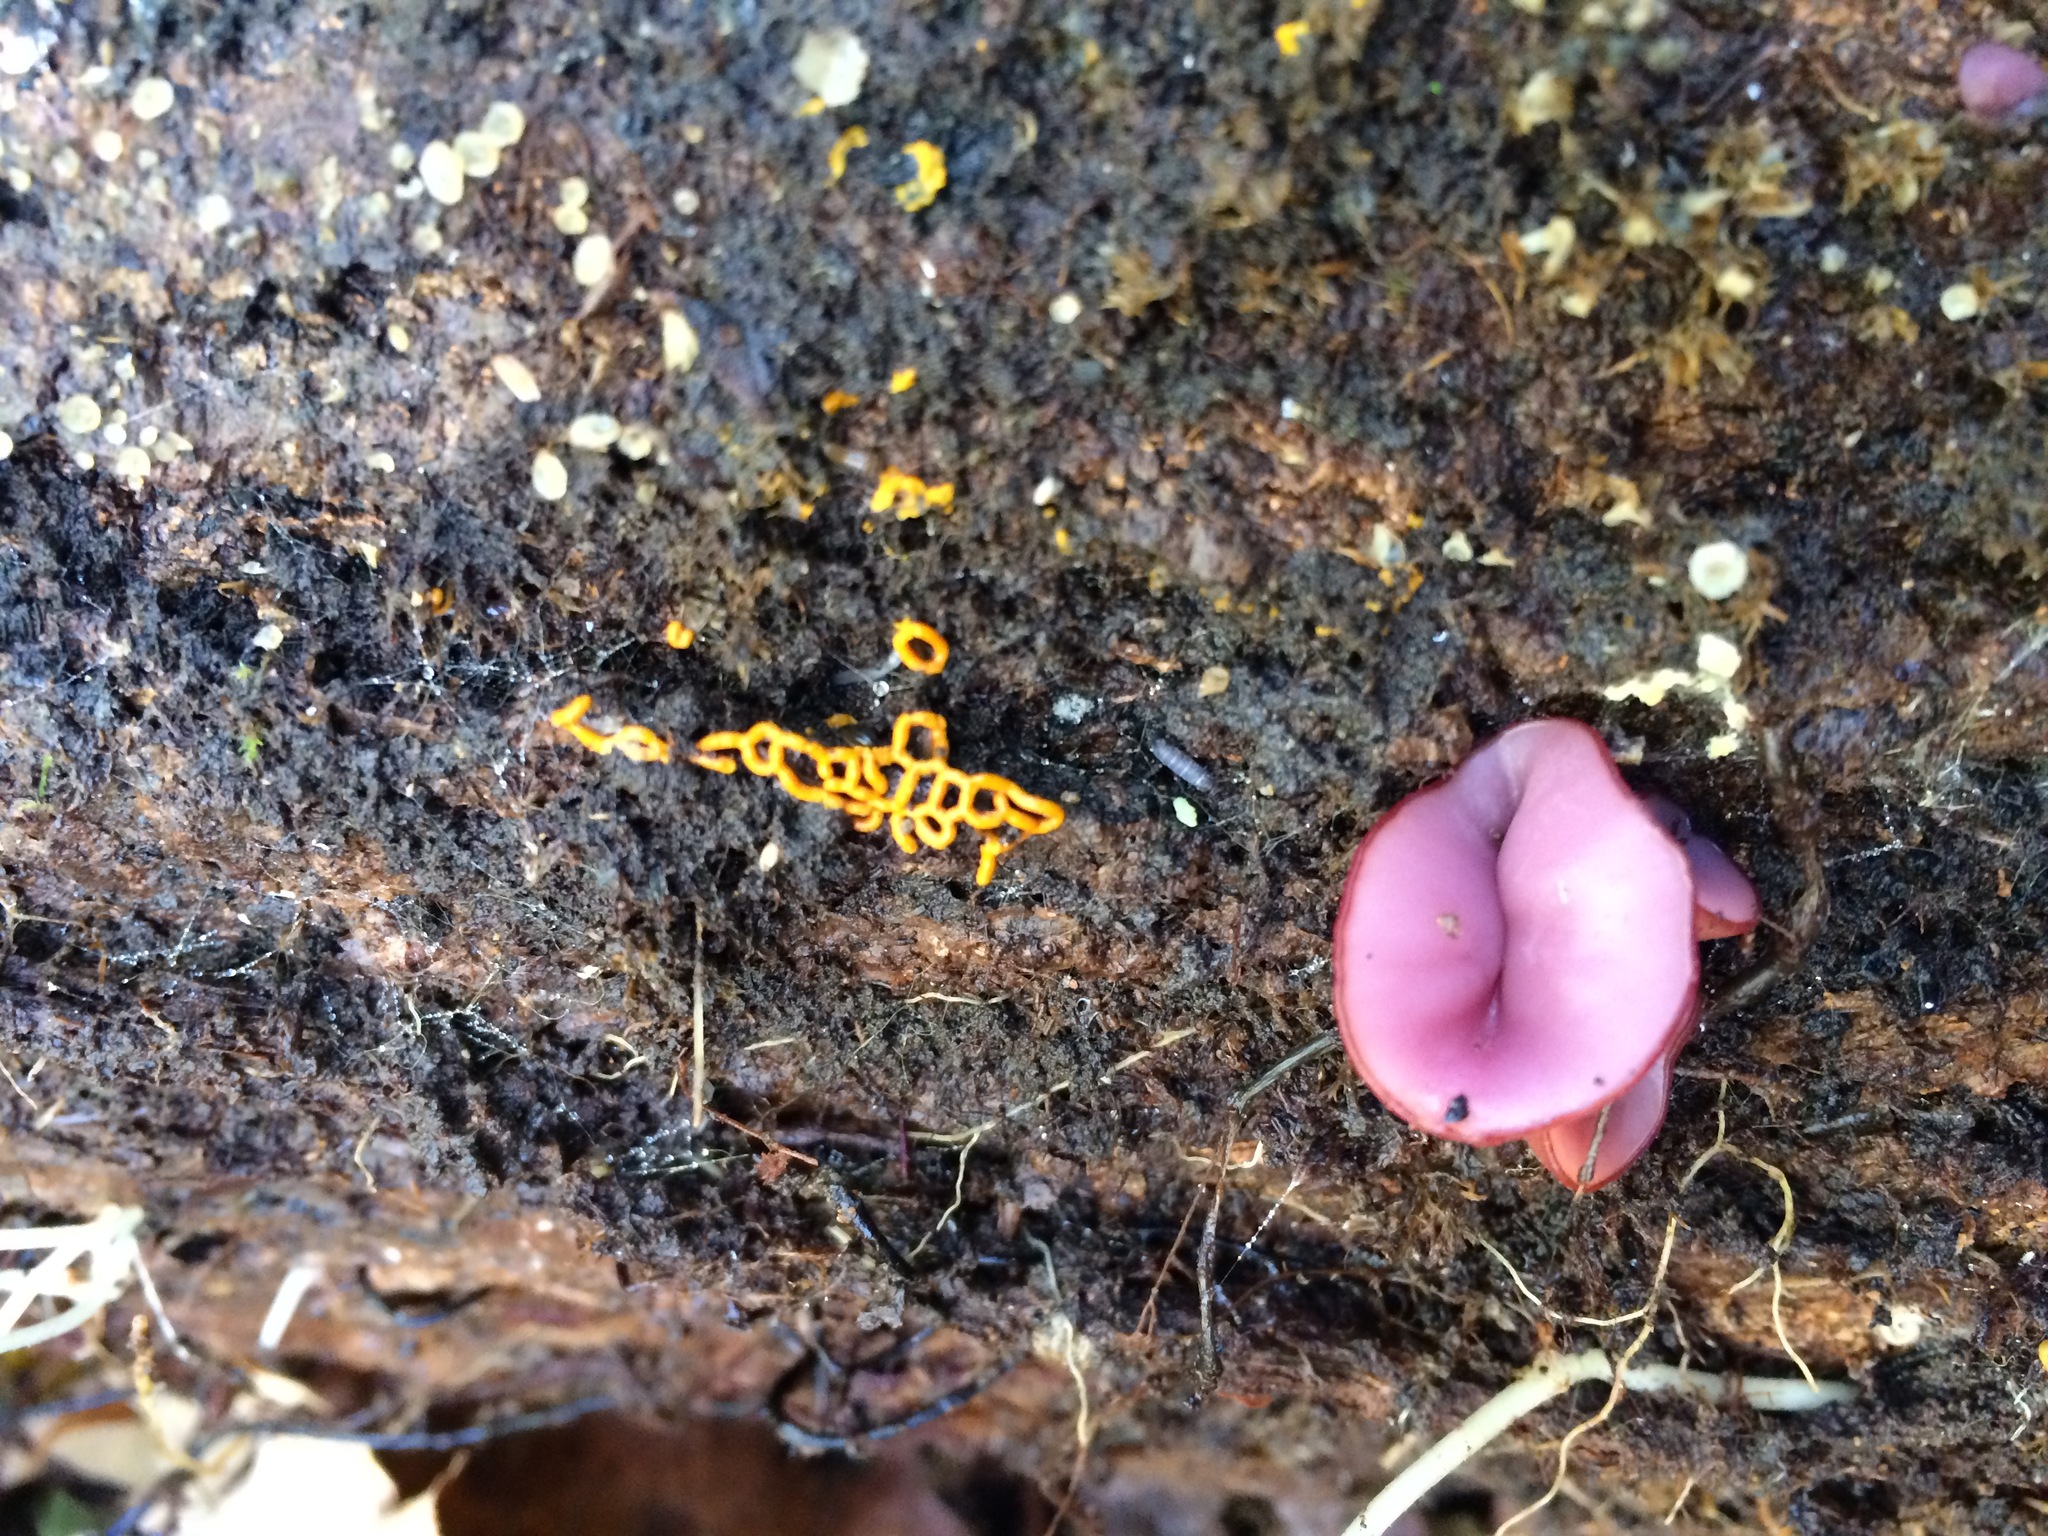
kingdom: Fungi
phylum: Ascomycota
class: Leotiomycetes
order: Helotiales
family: Gelatinodiscaceae
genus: Ascocoryne
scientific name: Ascocoryne sarcoides
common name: Purple jellydisc
